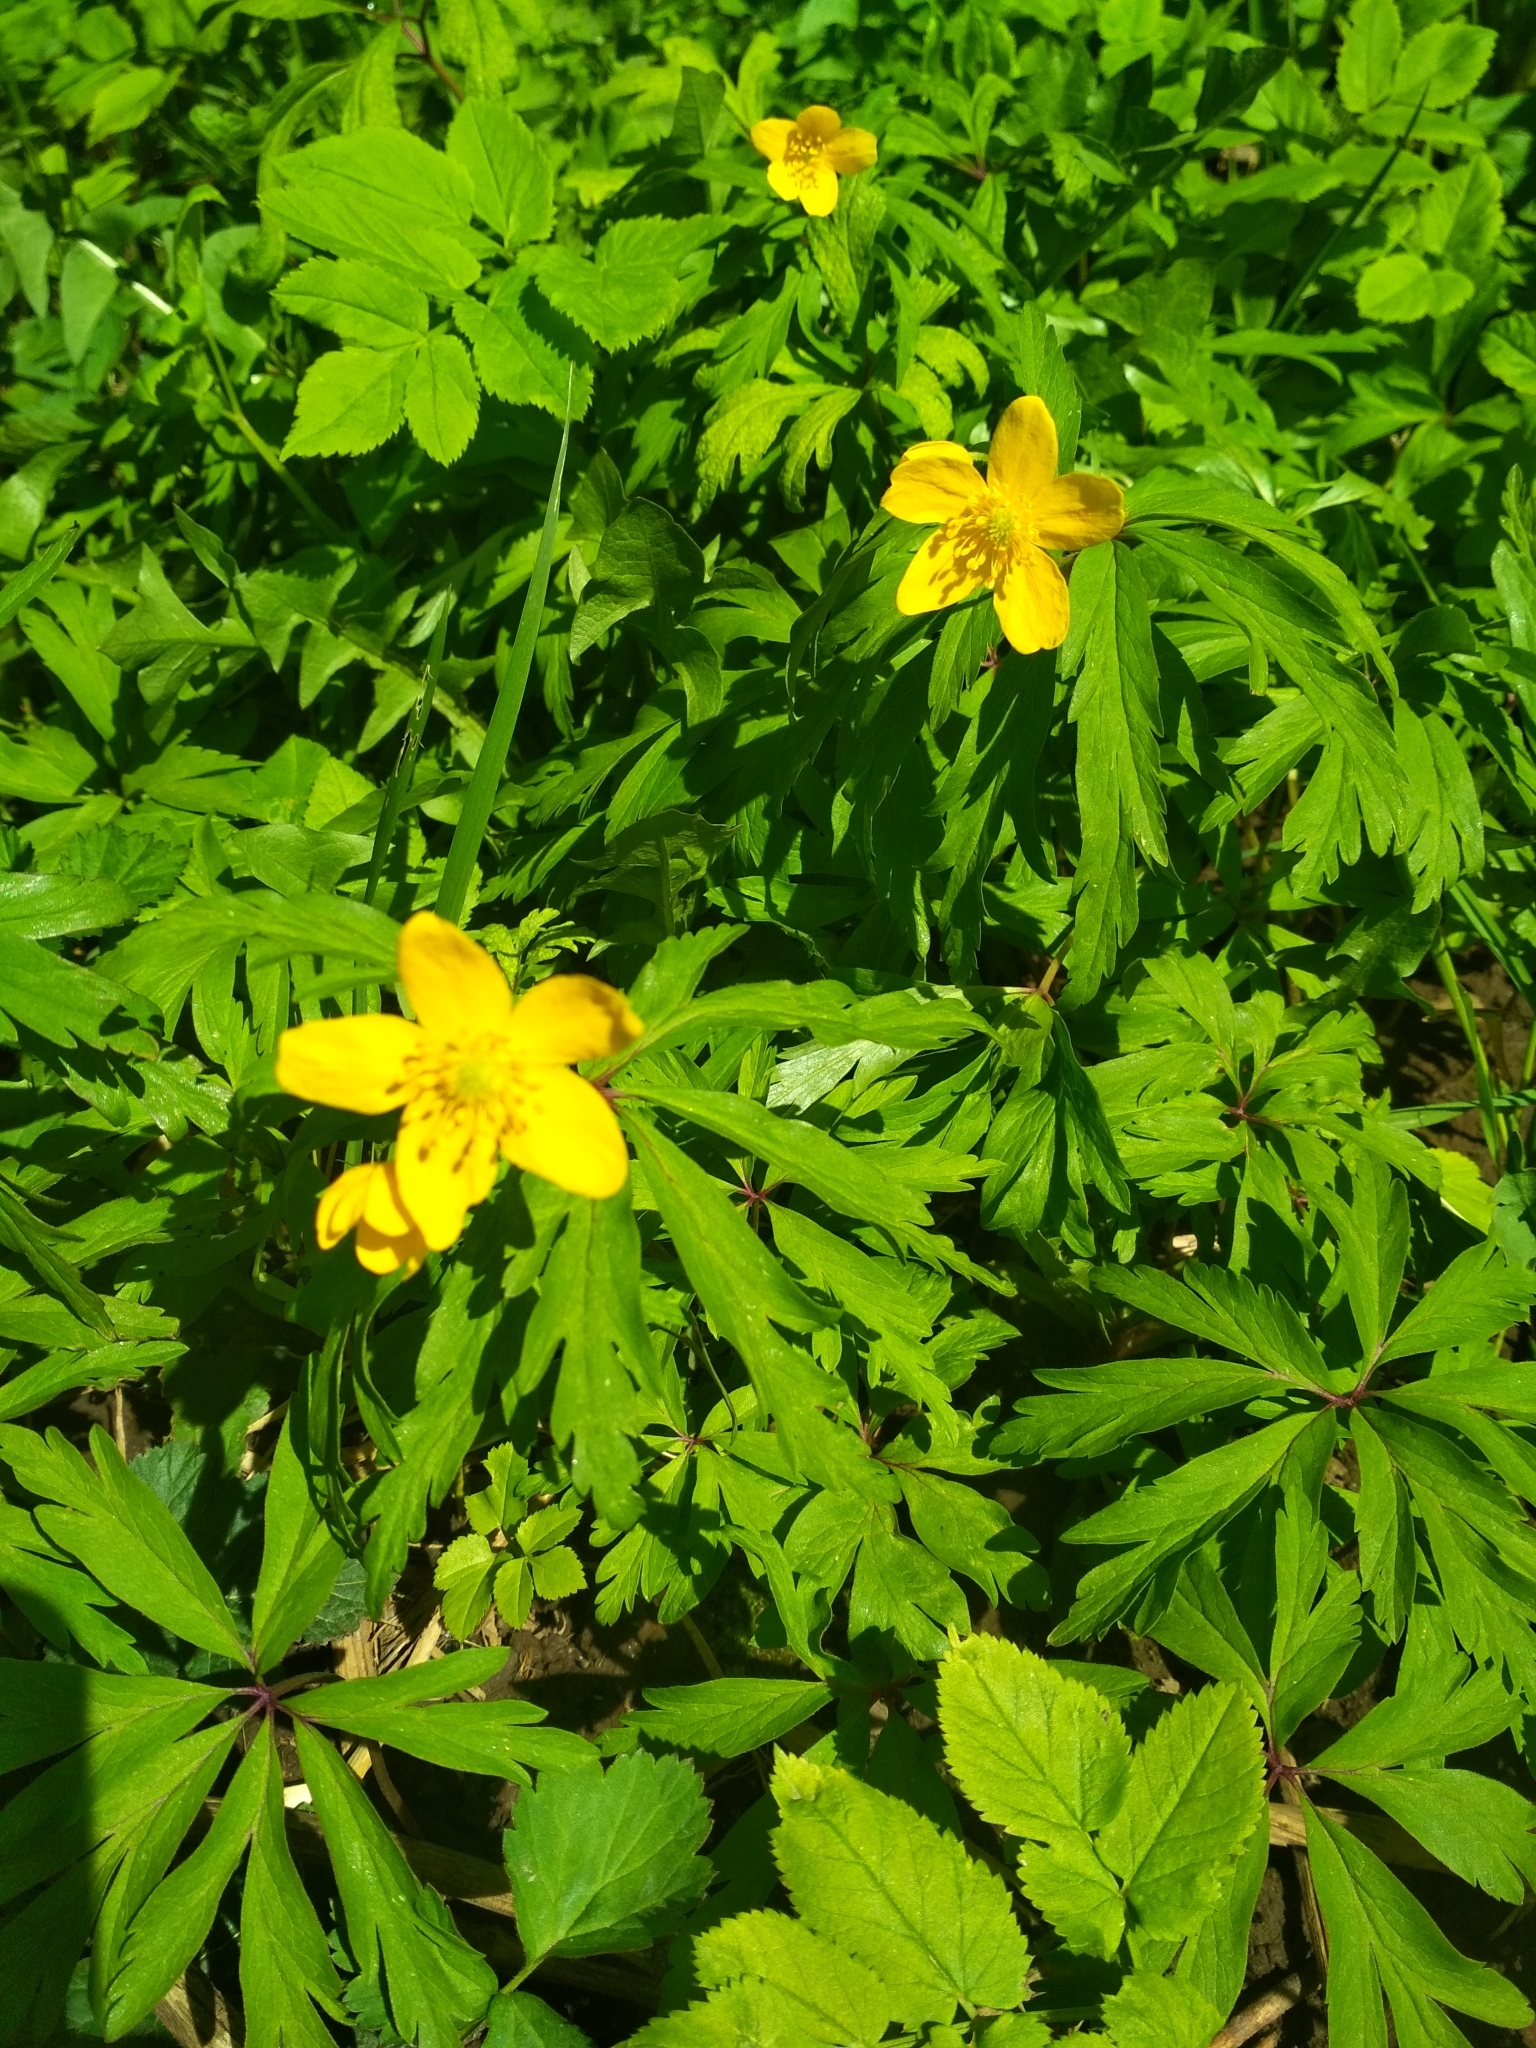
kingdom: Plantae
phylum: Tracheophyta
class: Magnoliopsida
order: Ranunculales
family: Ranunculaceae
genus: Anemone
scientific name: Anemone ranunculoides
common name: Yellow anemone
